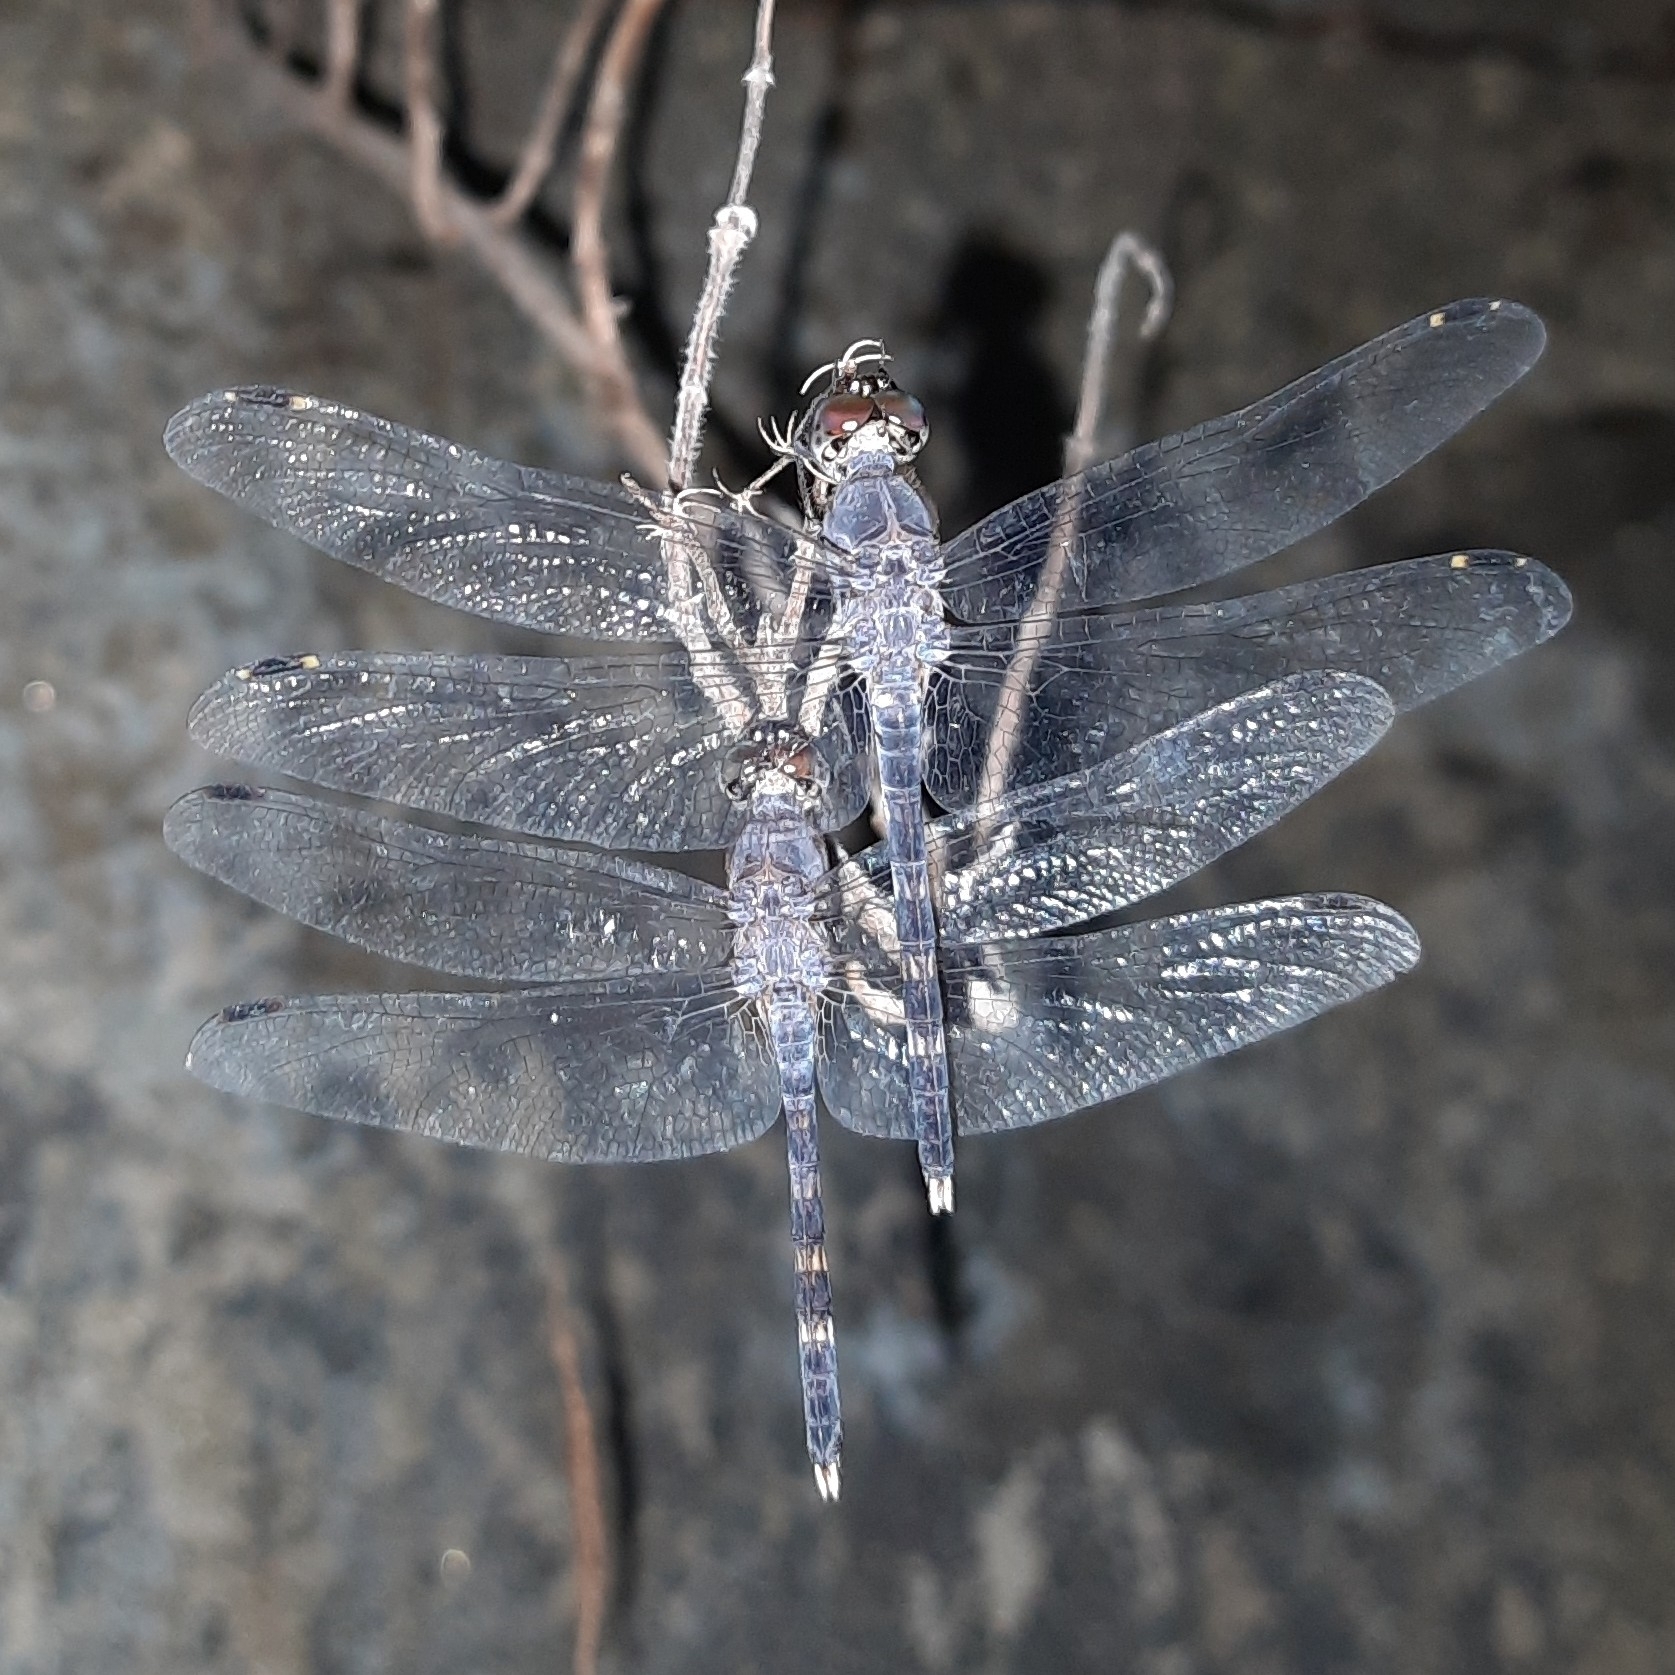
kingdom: Animalia
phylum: Arthropoda
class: Insecta
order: Odonata
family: Libellulidae
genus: Bradinopyga
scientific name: Bradinopyga geminata
